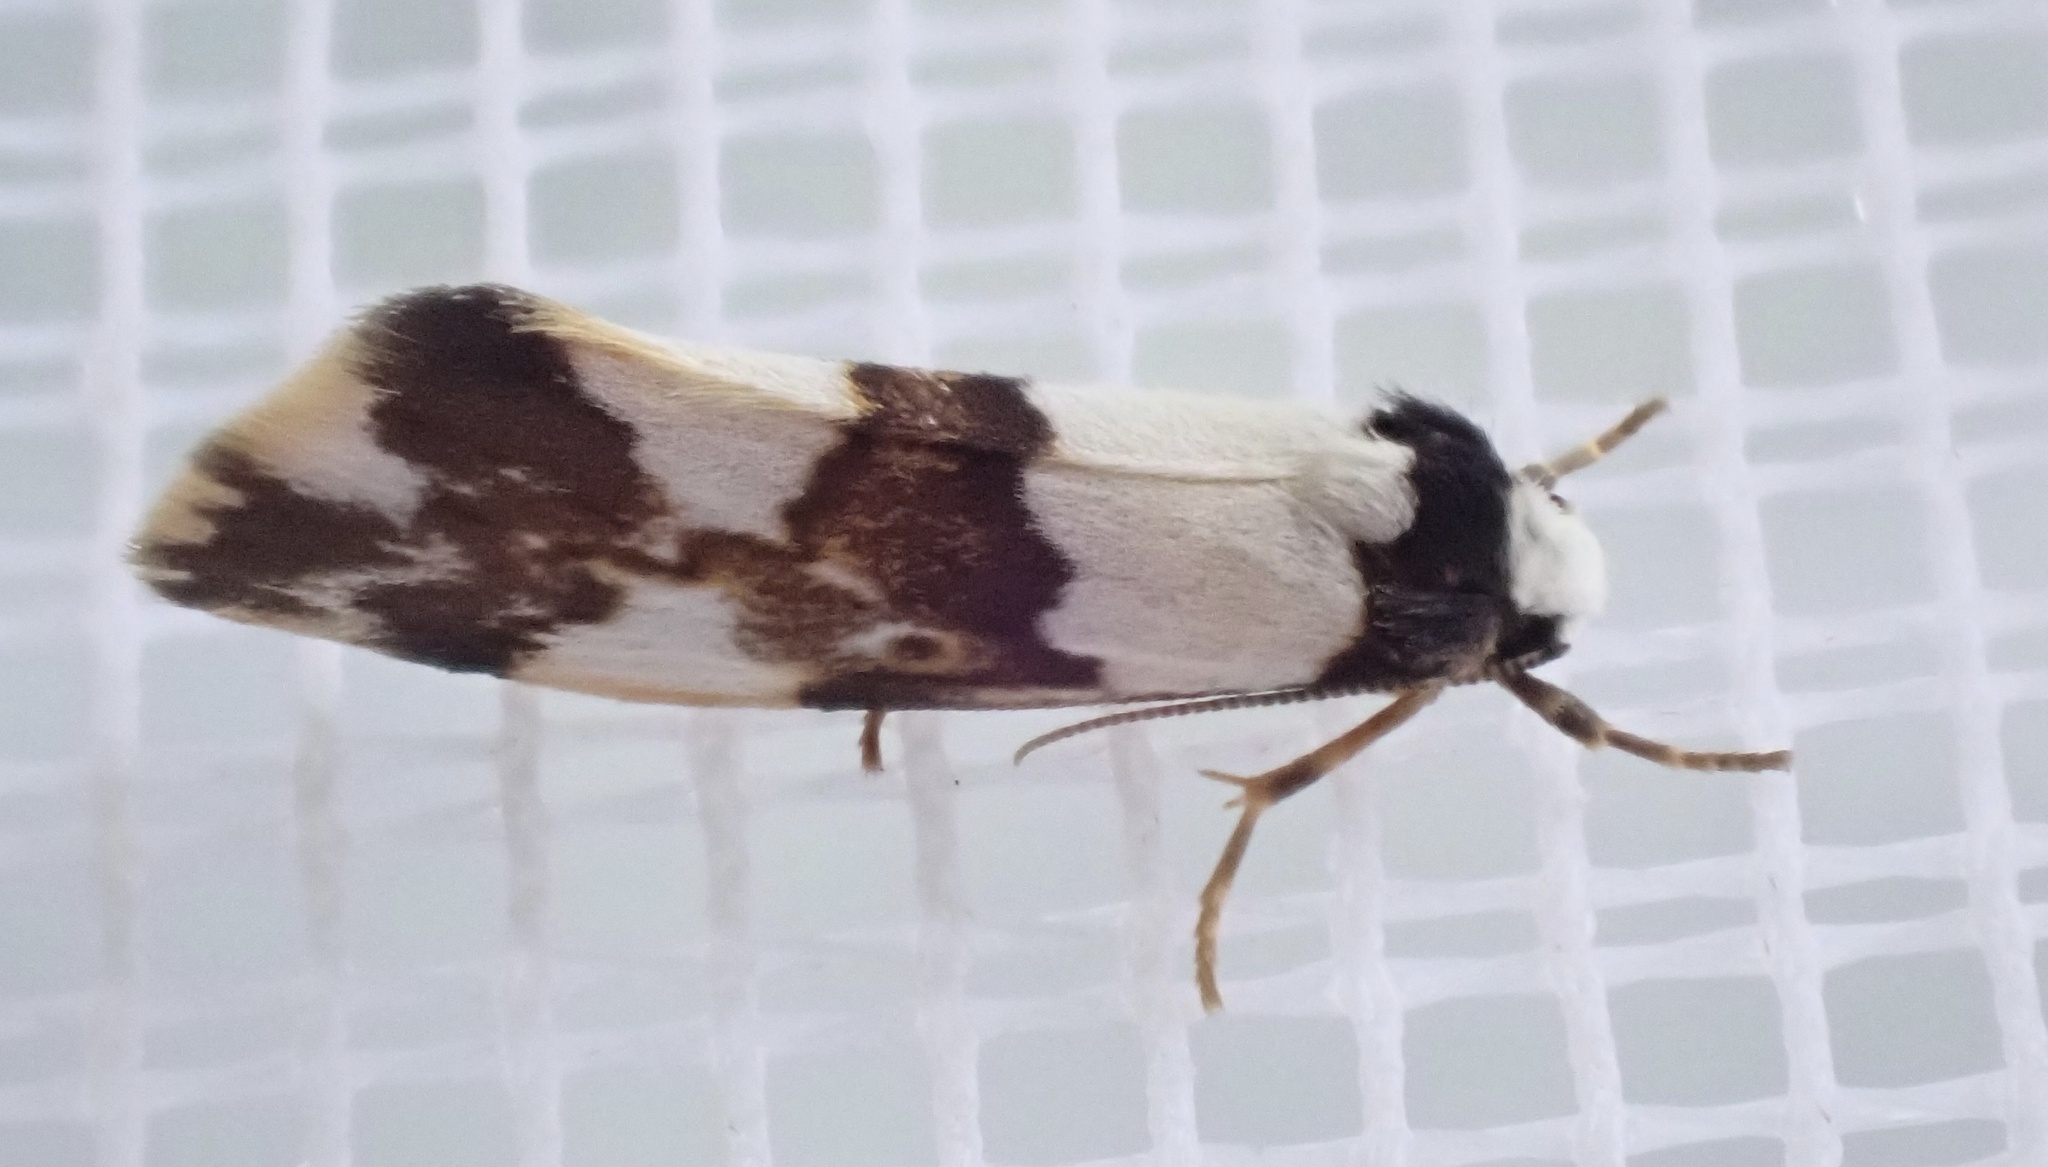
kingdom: Animalia
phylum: Arthropoda
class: Insecta
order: Lepidoptera
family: Erebidae
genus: Philenora
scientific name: Philenora aspectalella
